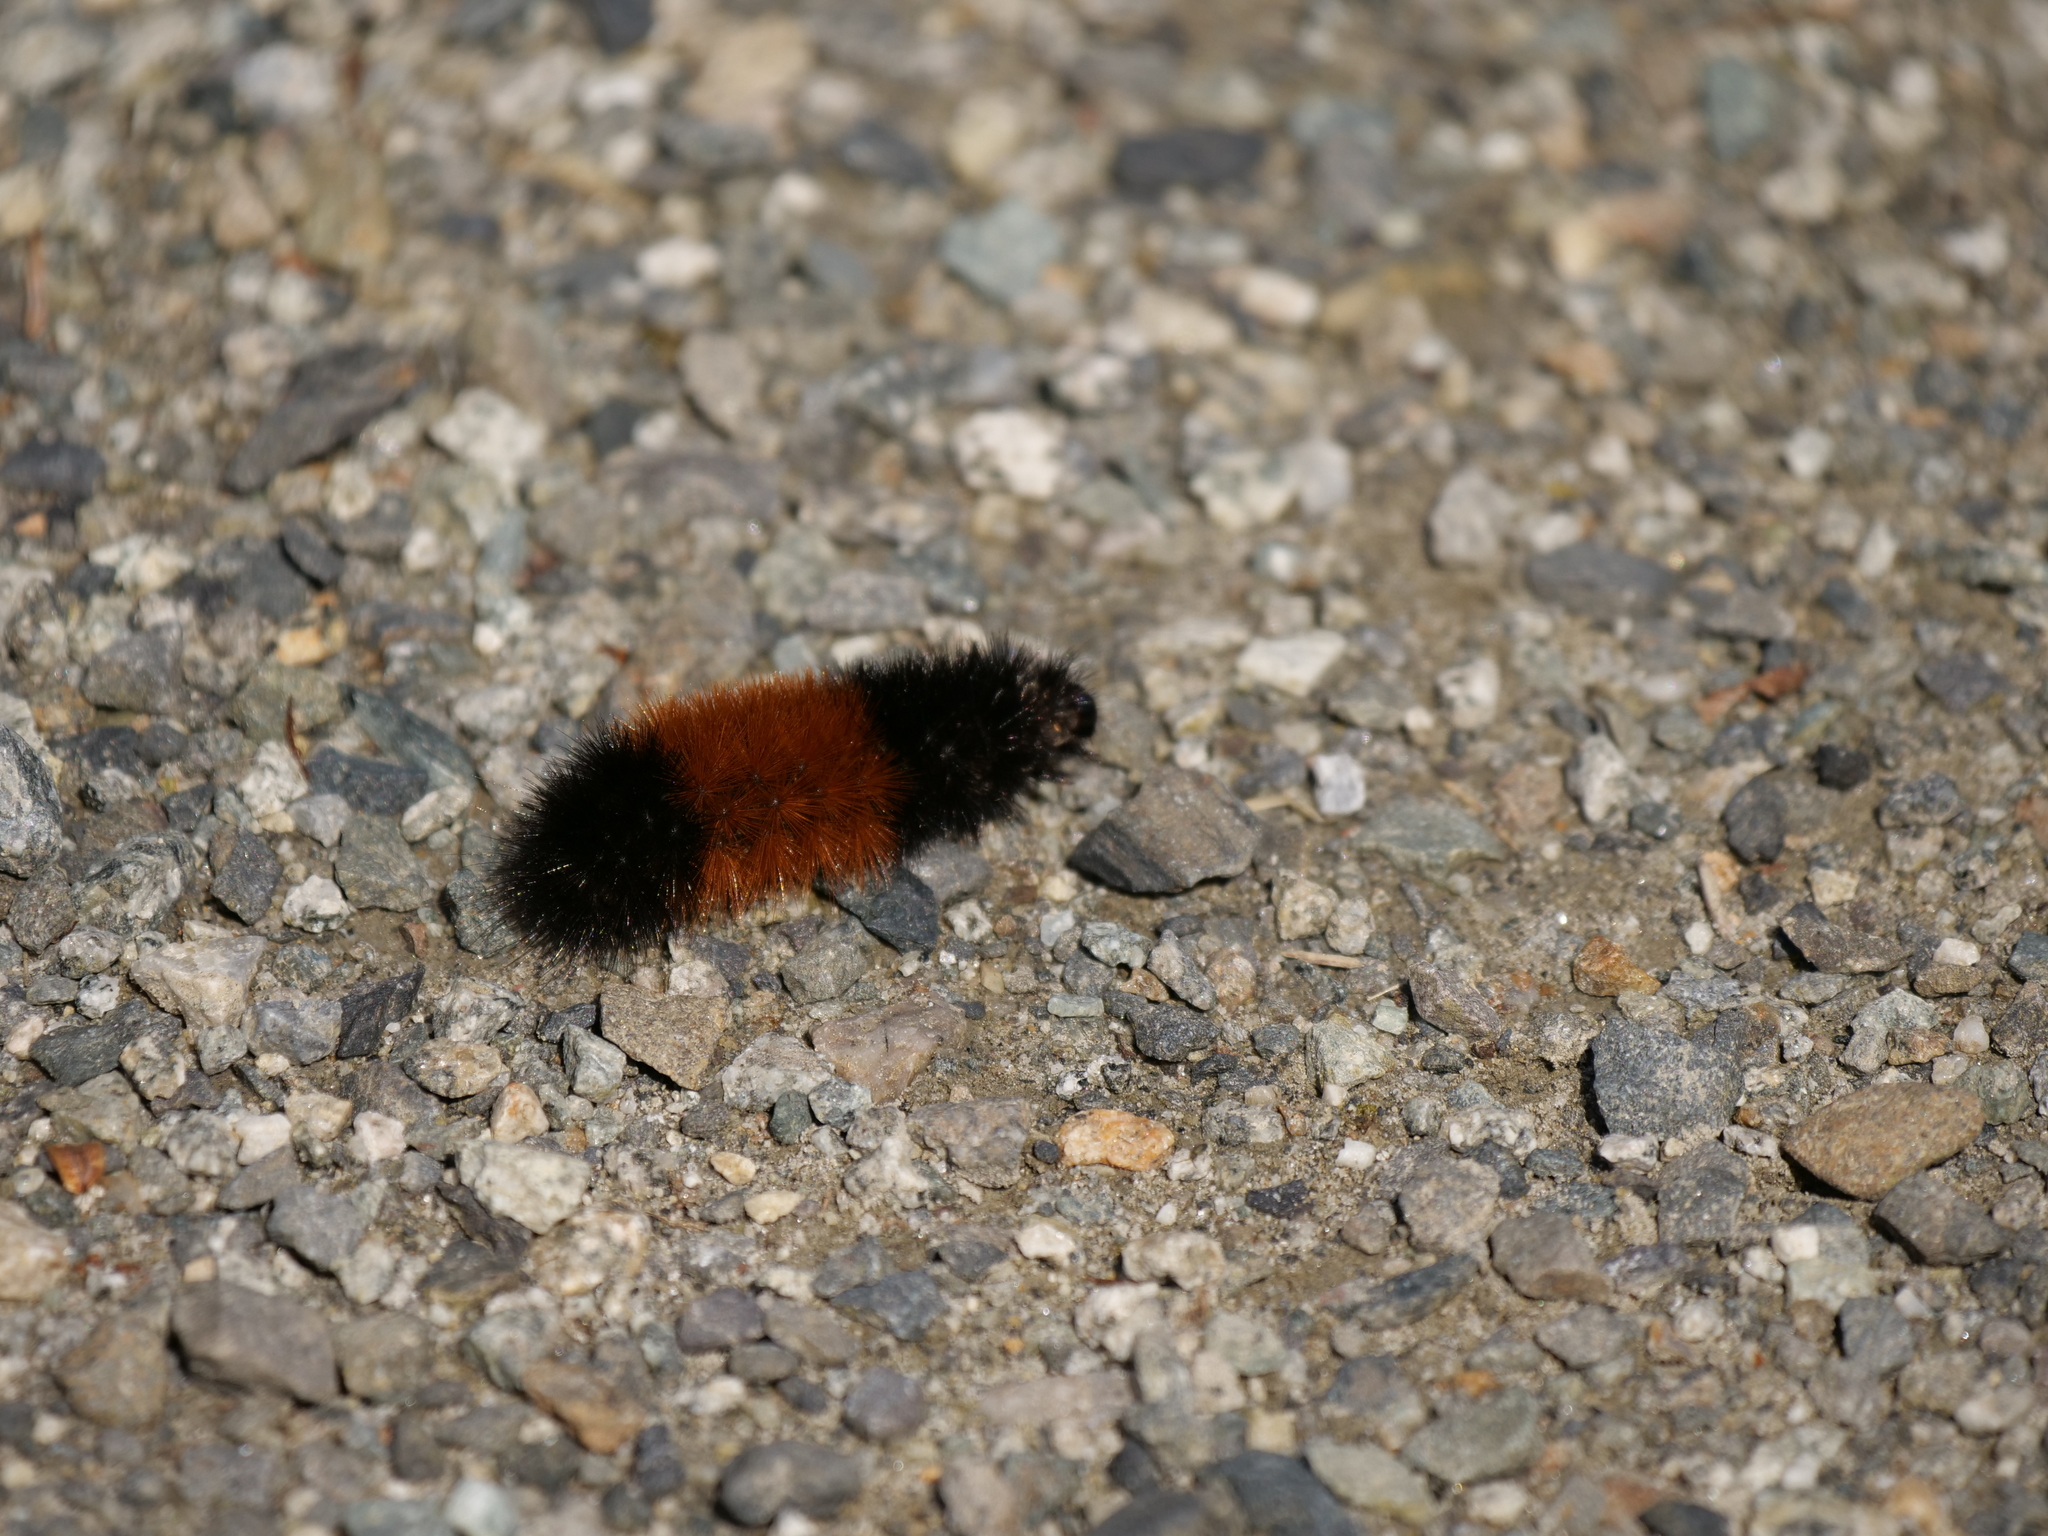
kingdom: Animalia
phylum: Arthropoda
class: Insecta
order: Lepidoptera
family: Erebidae
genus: Pyrrharctia
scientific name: Pyrrharctia isabella
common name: Isabella tiger moth
